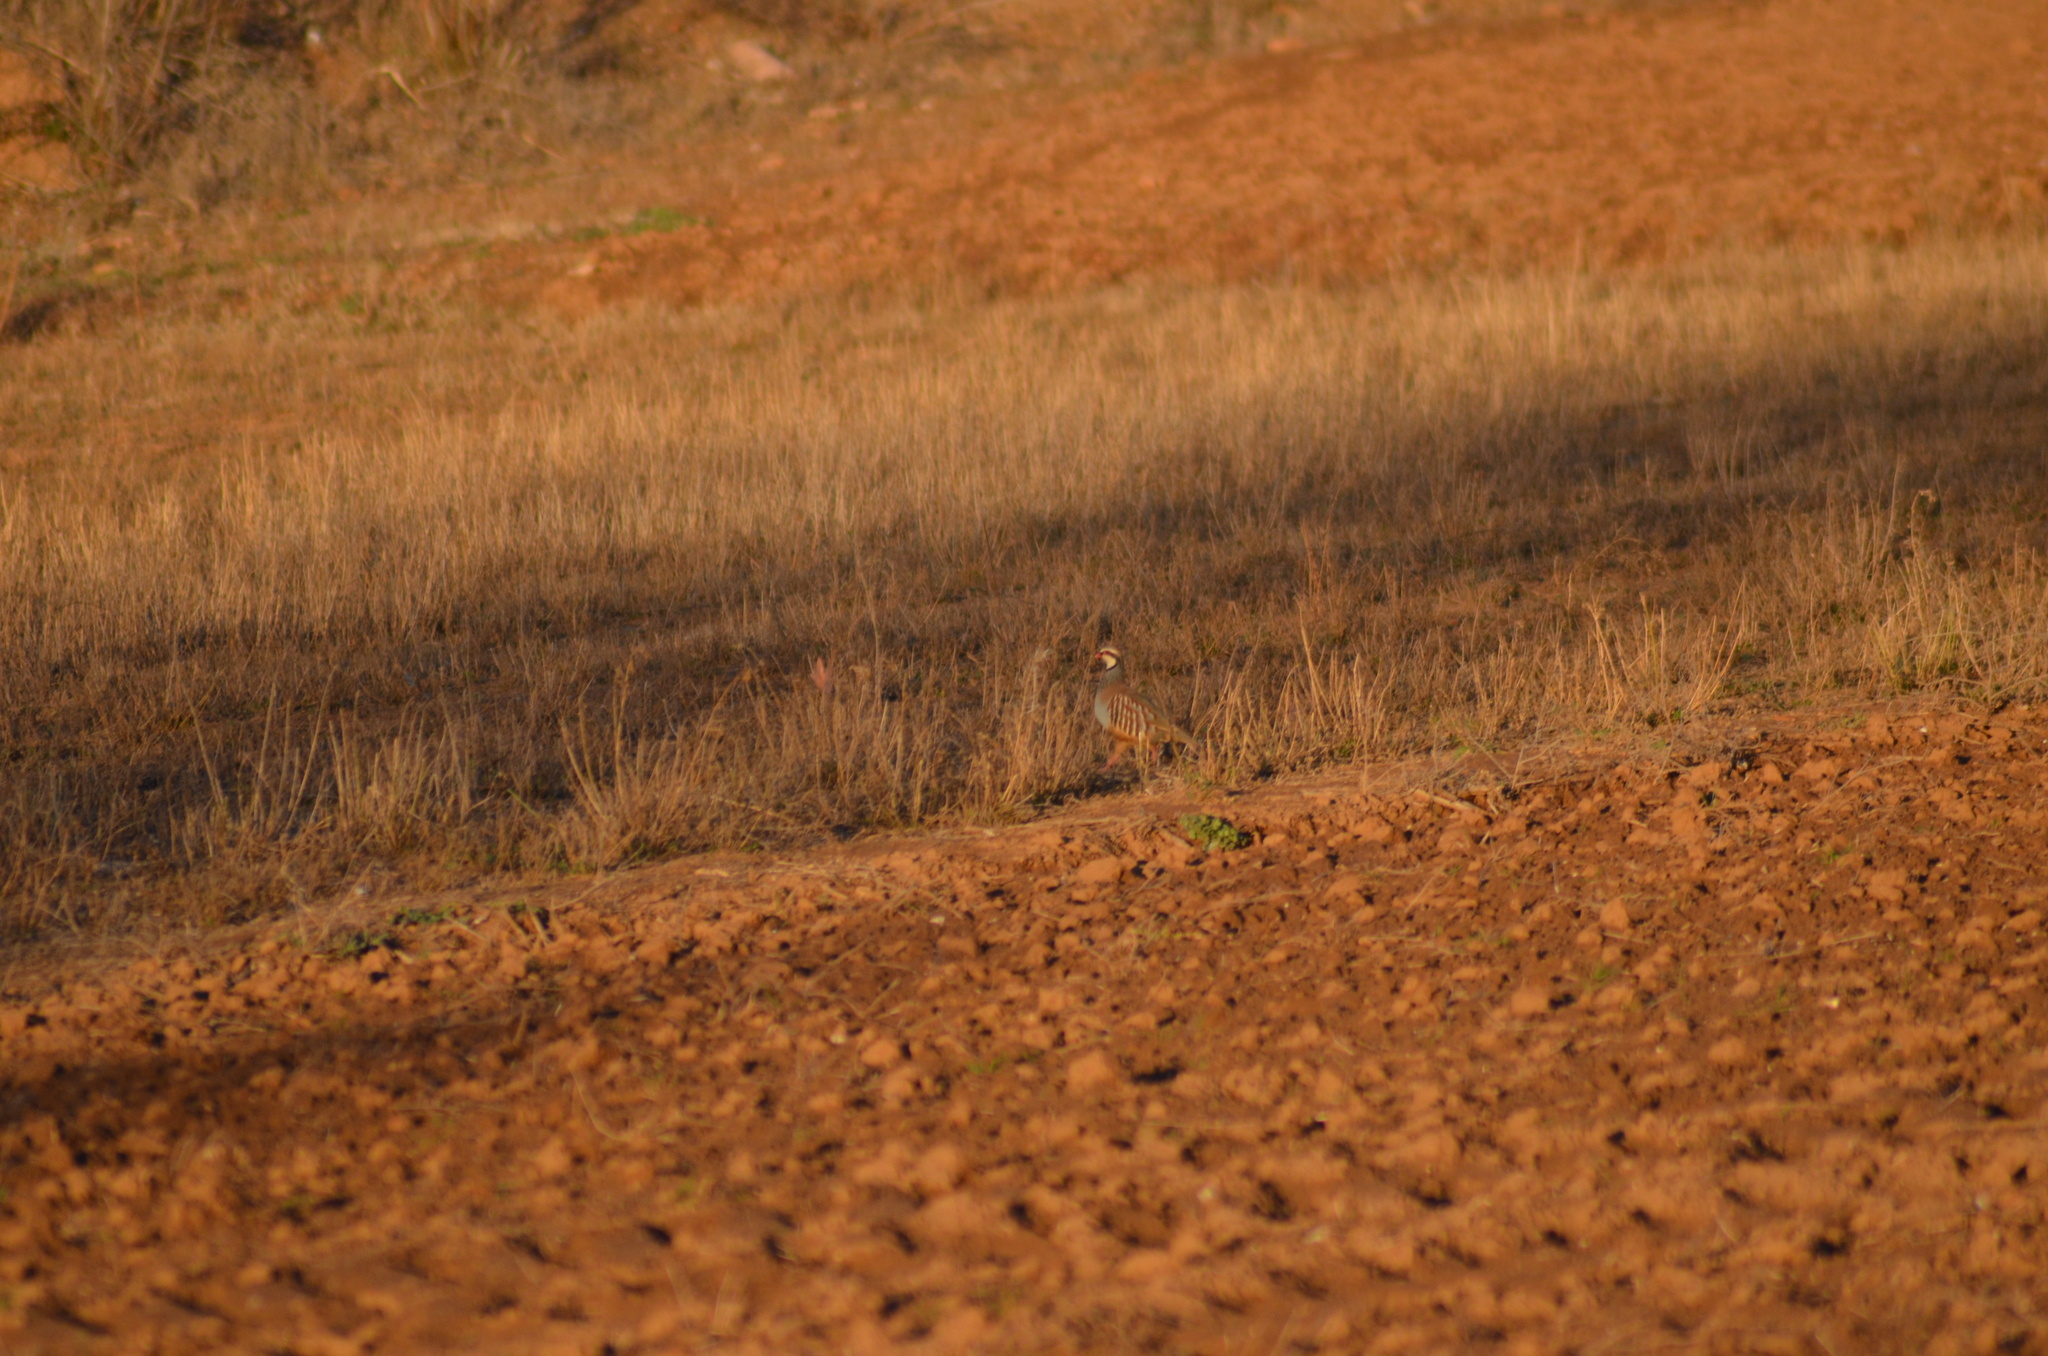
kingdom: Animalia
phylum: Chordata
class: Aves
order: Galliformes
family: Phasianidae
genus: Alectoris
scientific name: Alectoris rufa
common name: Red-legged partridge
